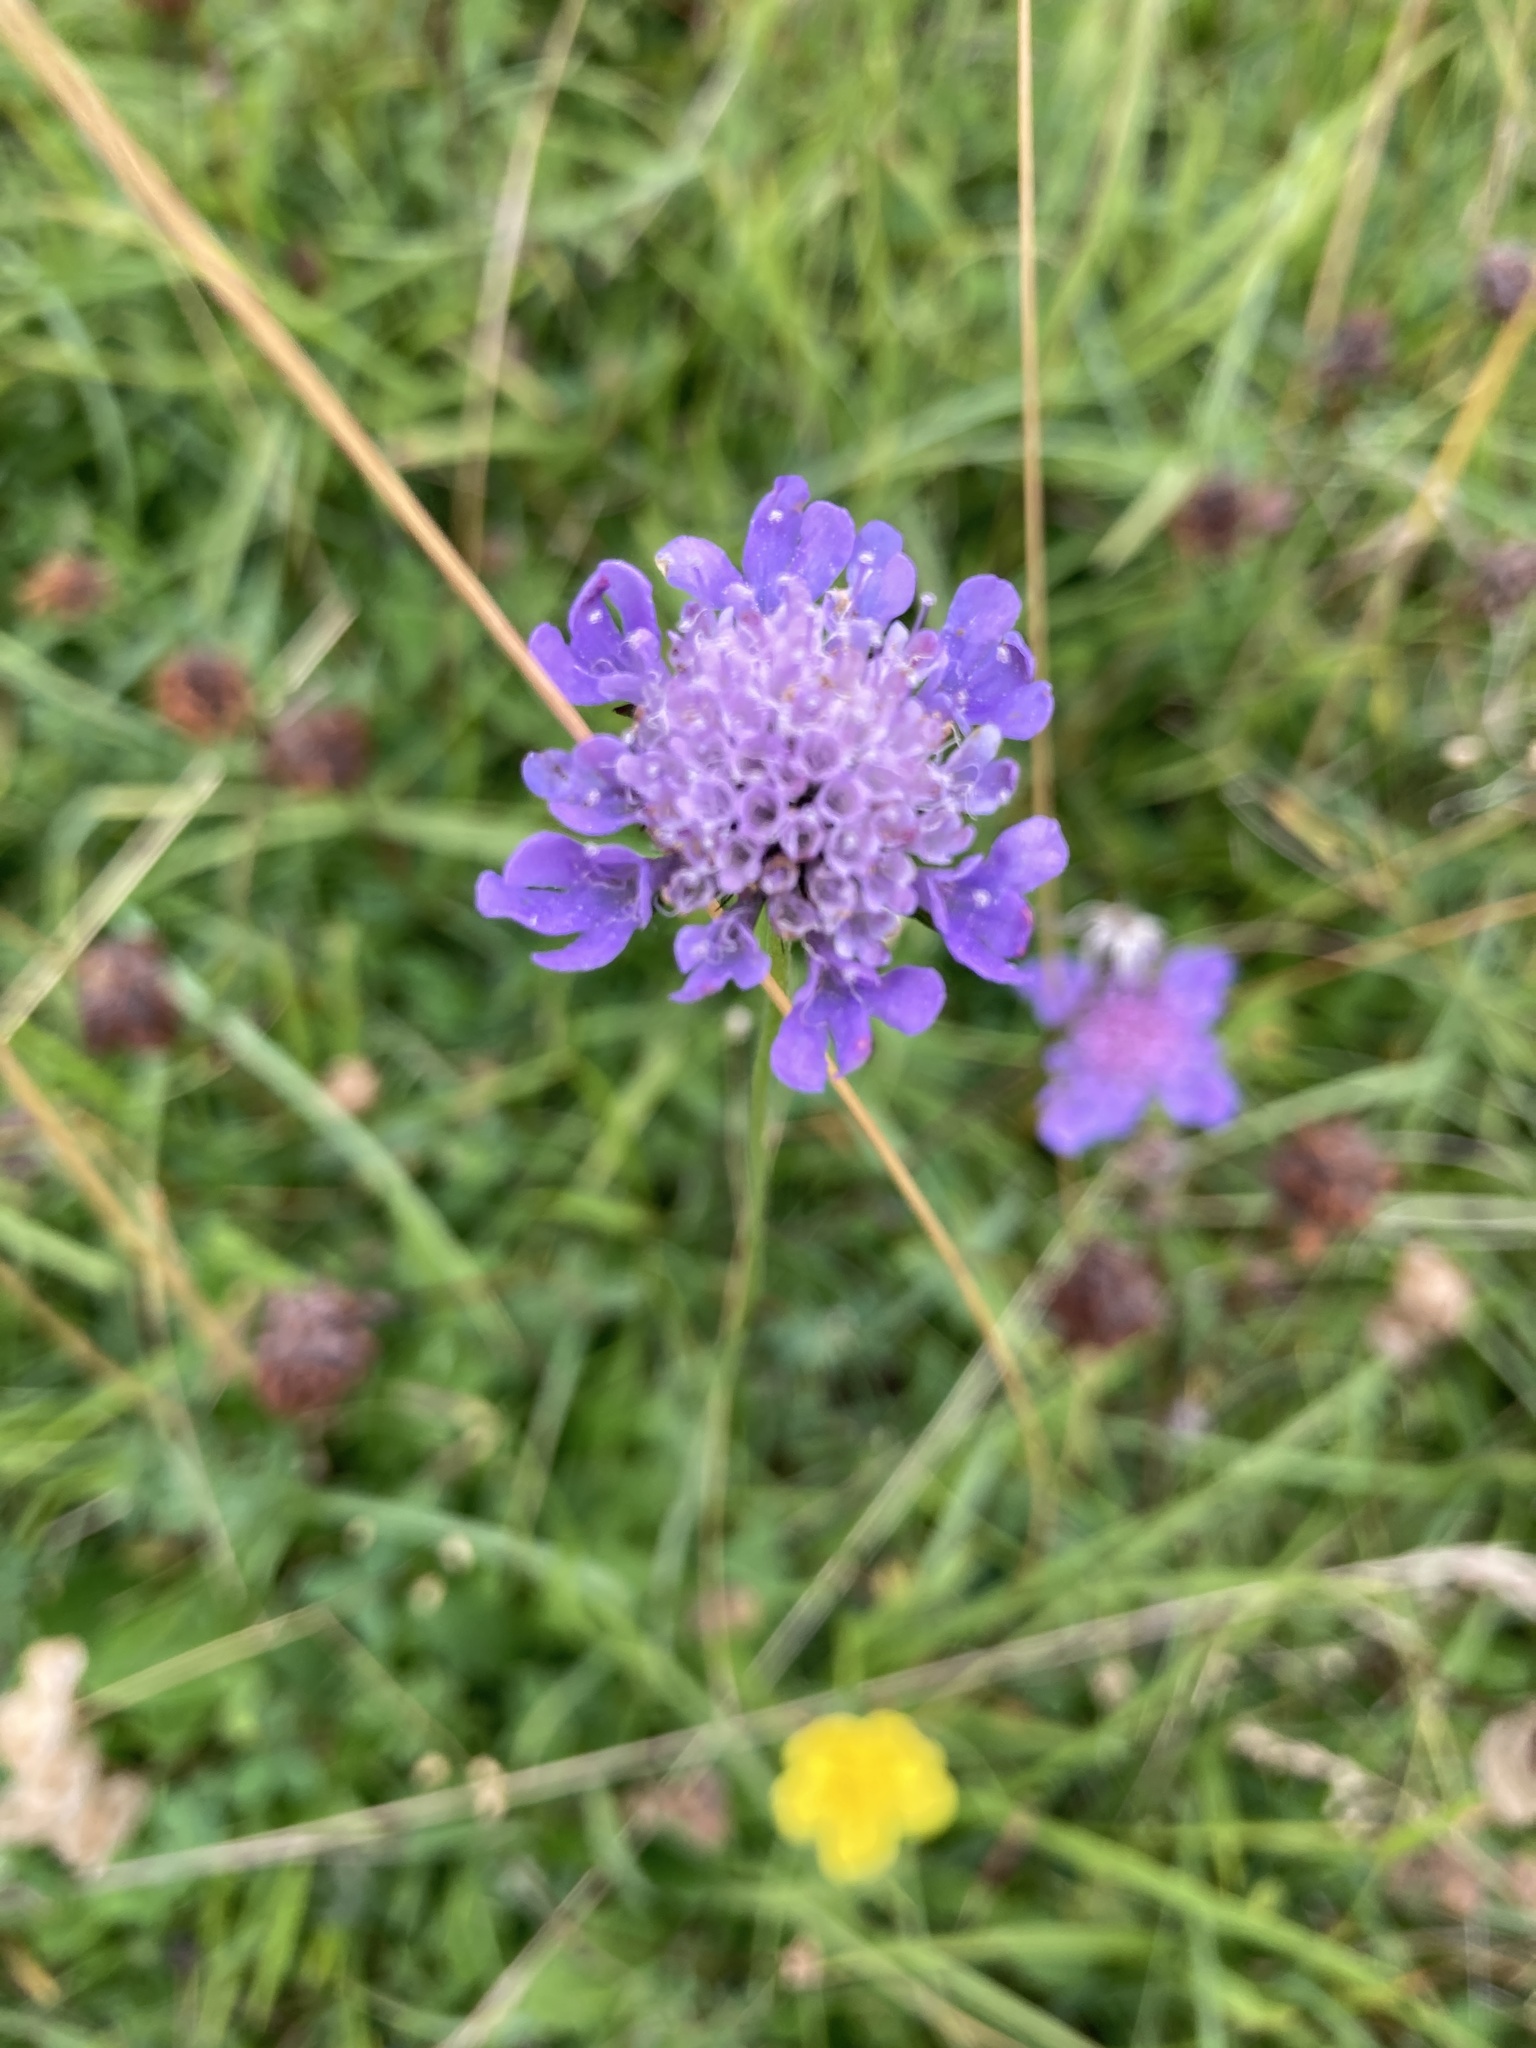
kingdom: Plantae
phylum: Tracheophyta
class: Magnoliopsida
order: Dipsacales
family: Caprifoliaceae
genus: Scabiosa
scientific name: Scabiosa columbaria
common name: Small scabious
